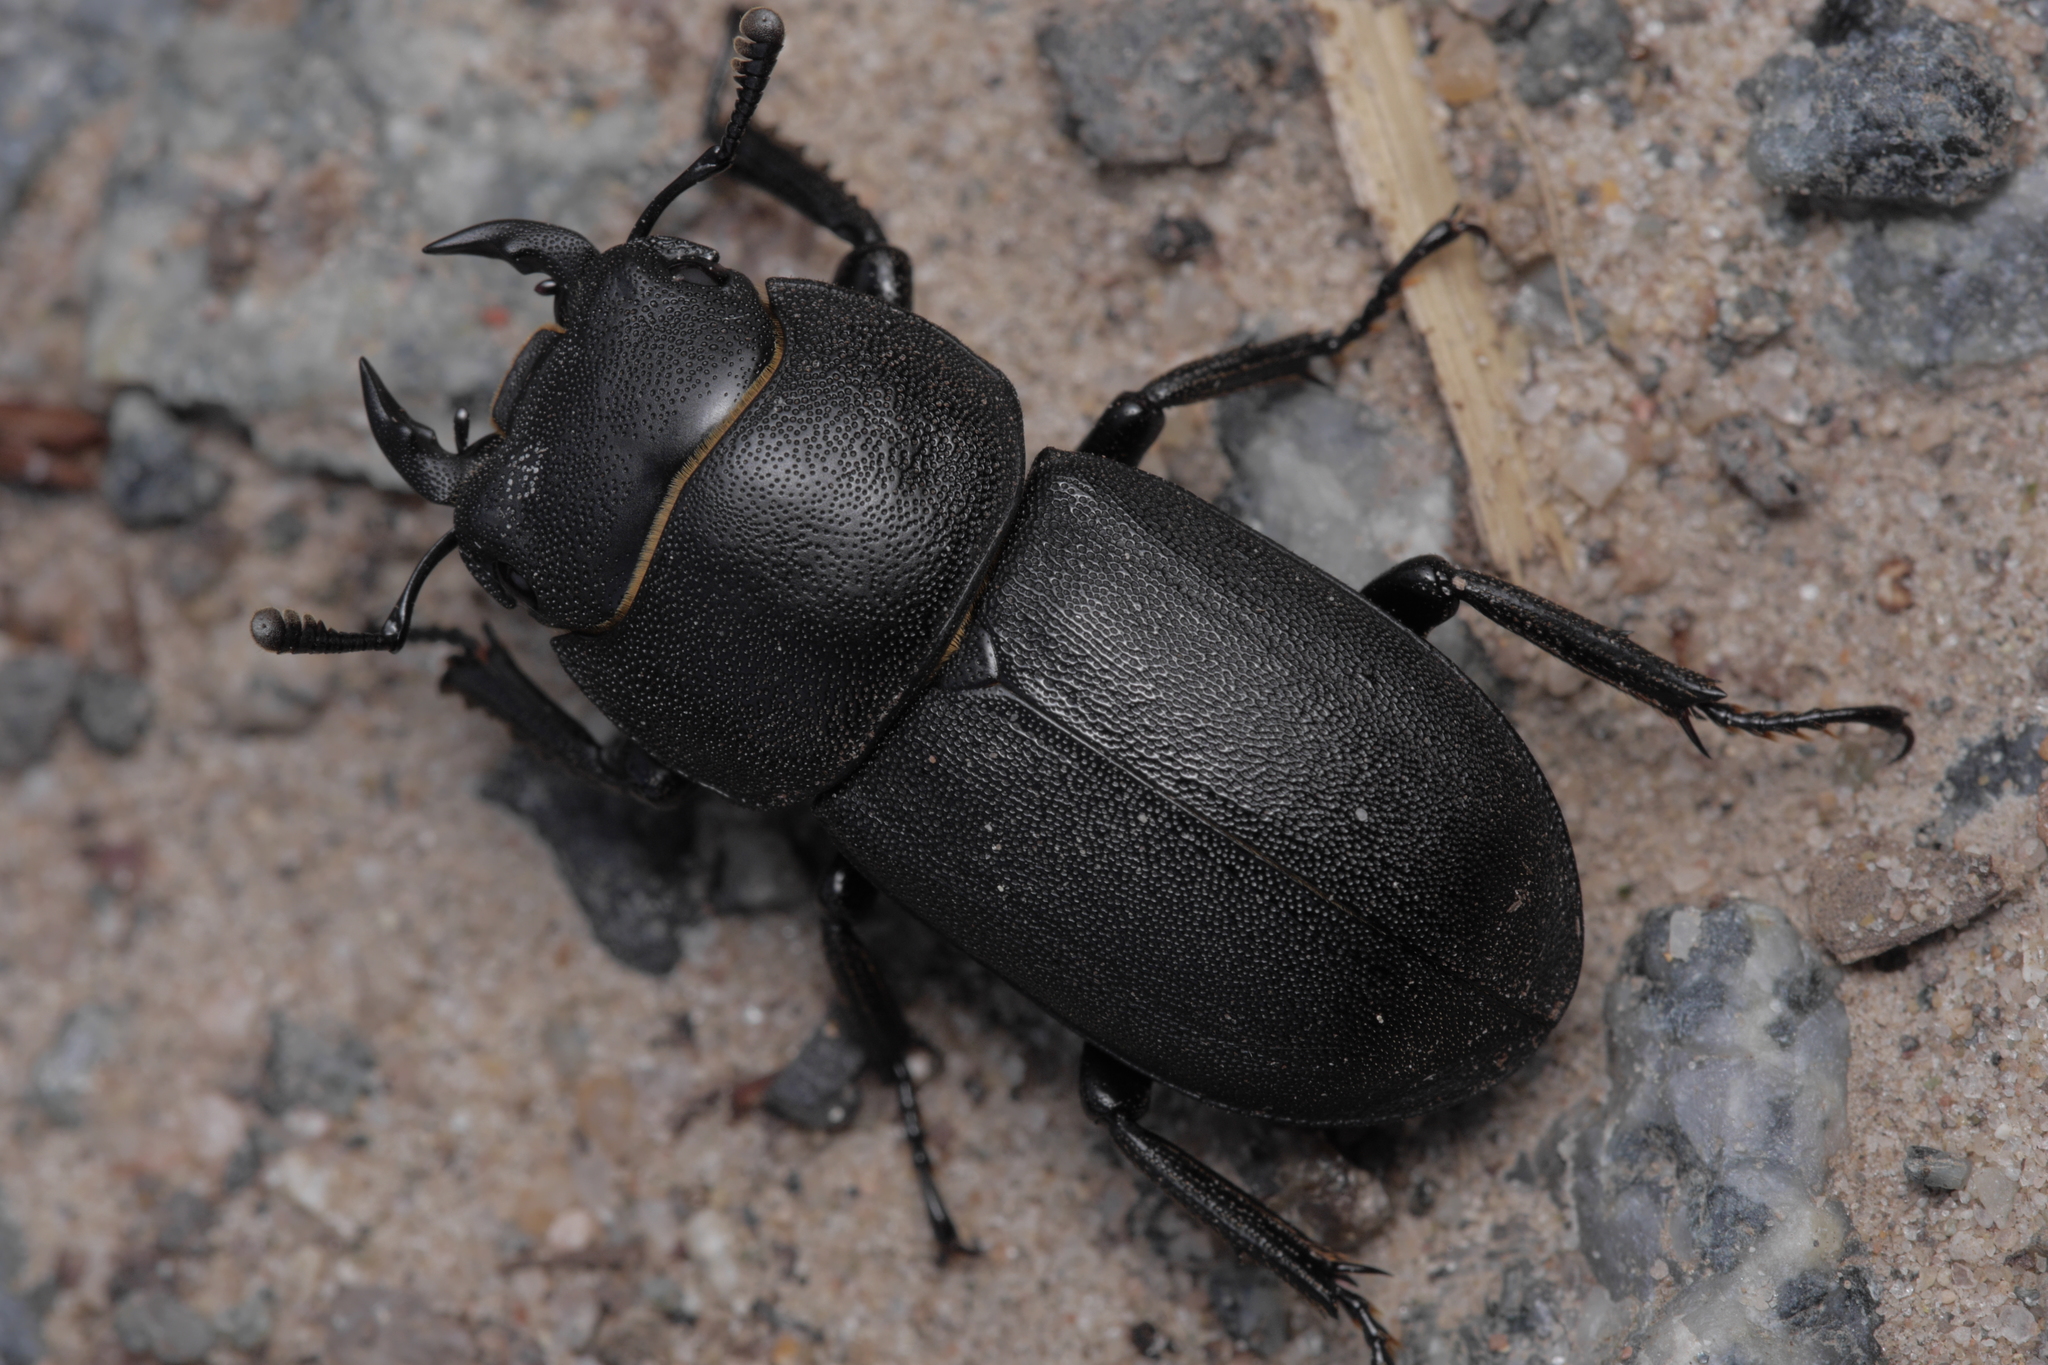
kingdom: Animalia
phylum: Arthropoda
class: Insecta
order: Coleoptera
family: Lucanidae
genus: Dorcus
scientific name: Dorcus parallelipipedus
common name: Lesser stag beetle
